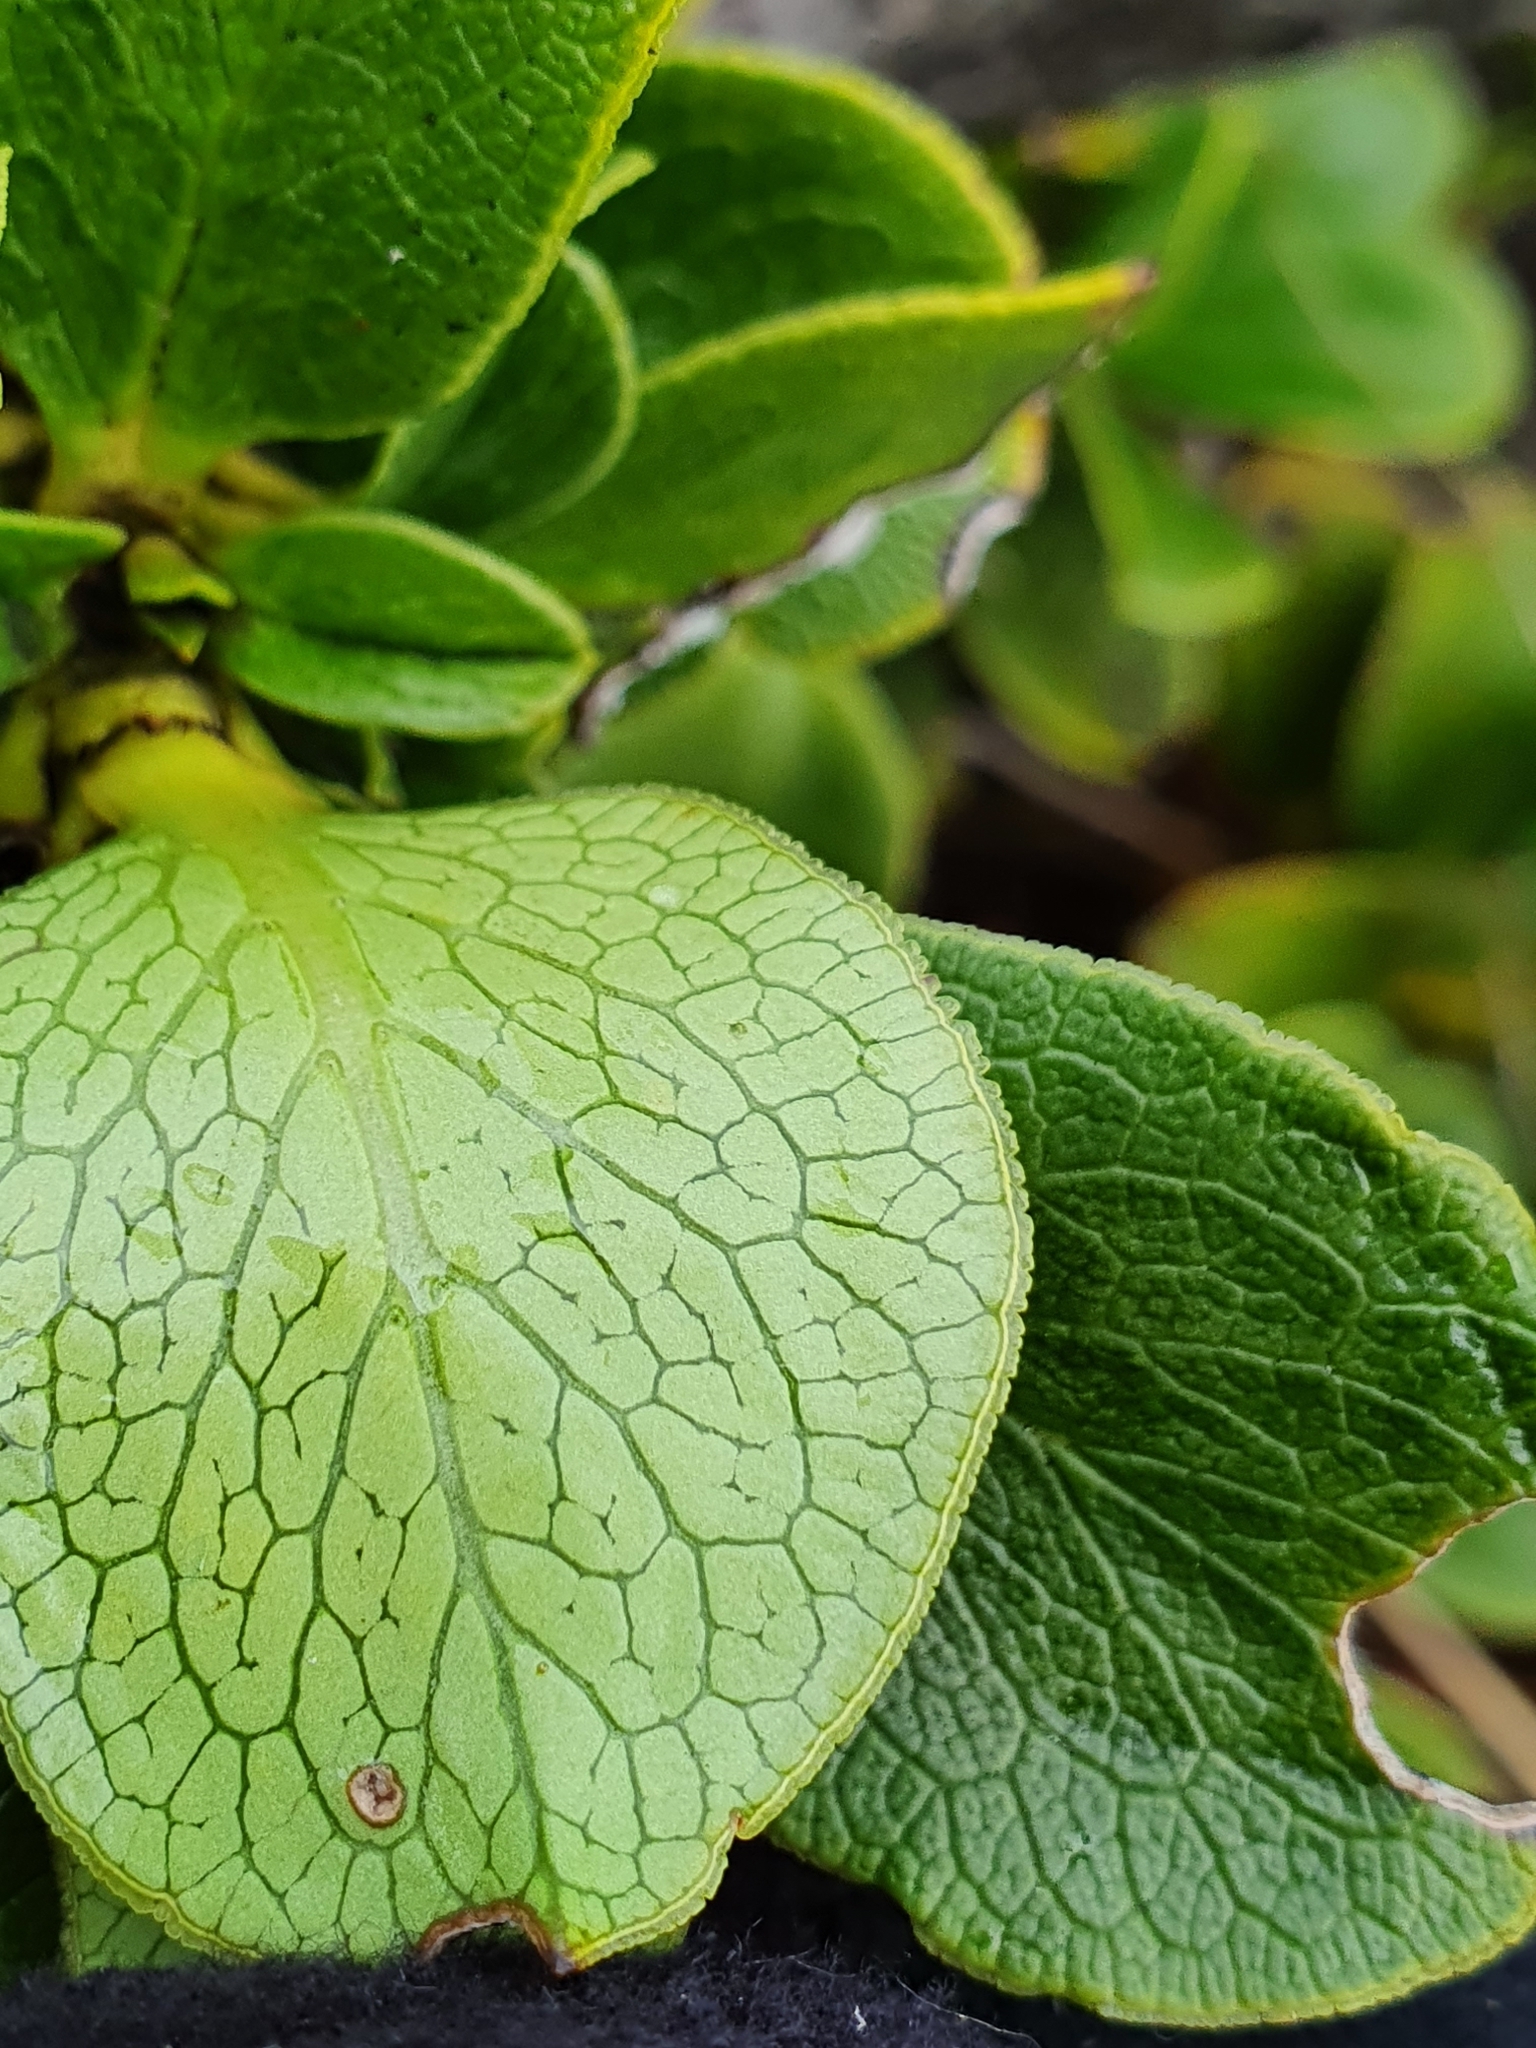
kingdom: Plantae
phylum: Tracheophyta
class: Magnoliopsida
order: Gentianales
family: Rubiaceae
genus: Coprosma
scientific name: Coprosma serrulata
